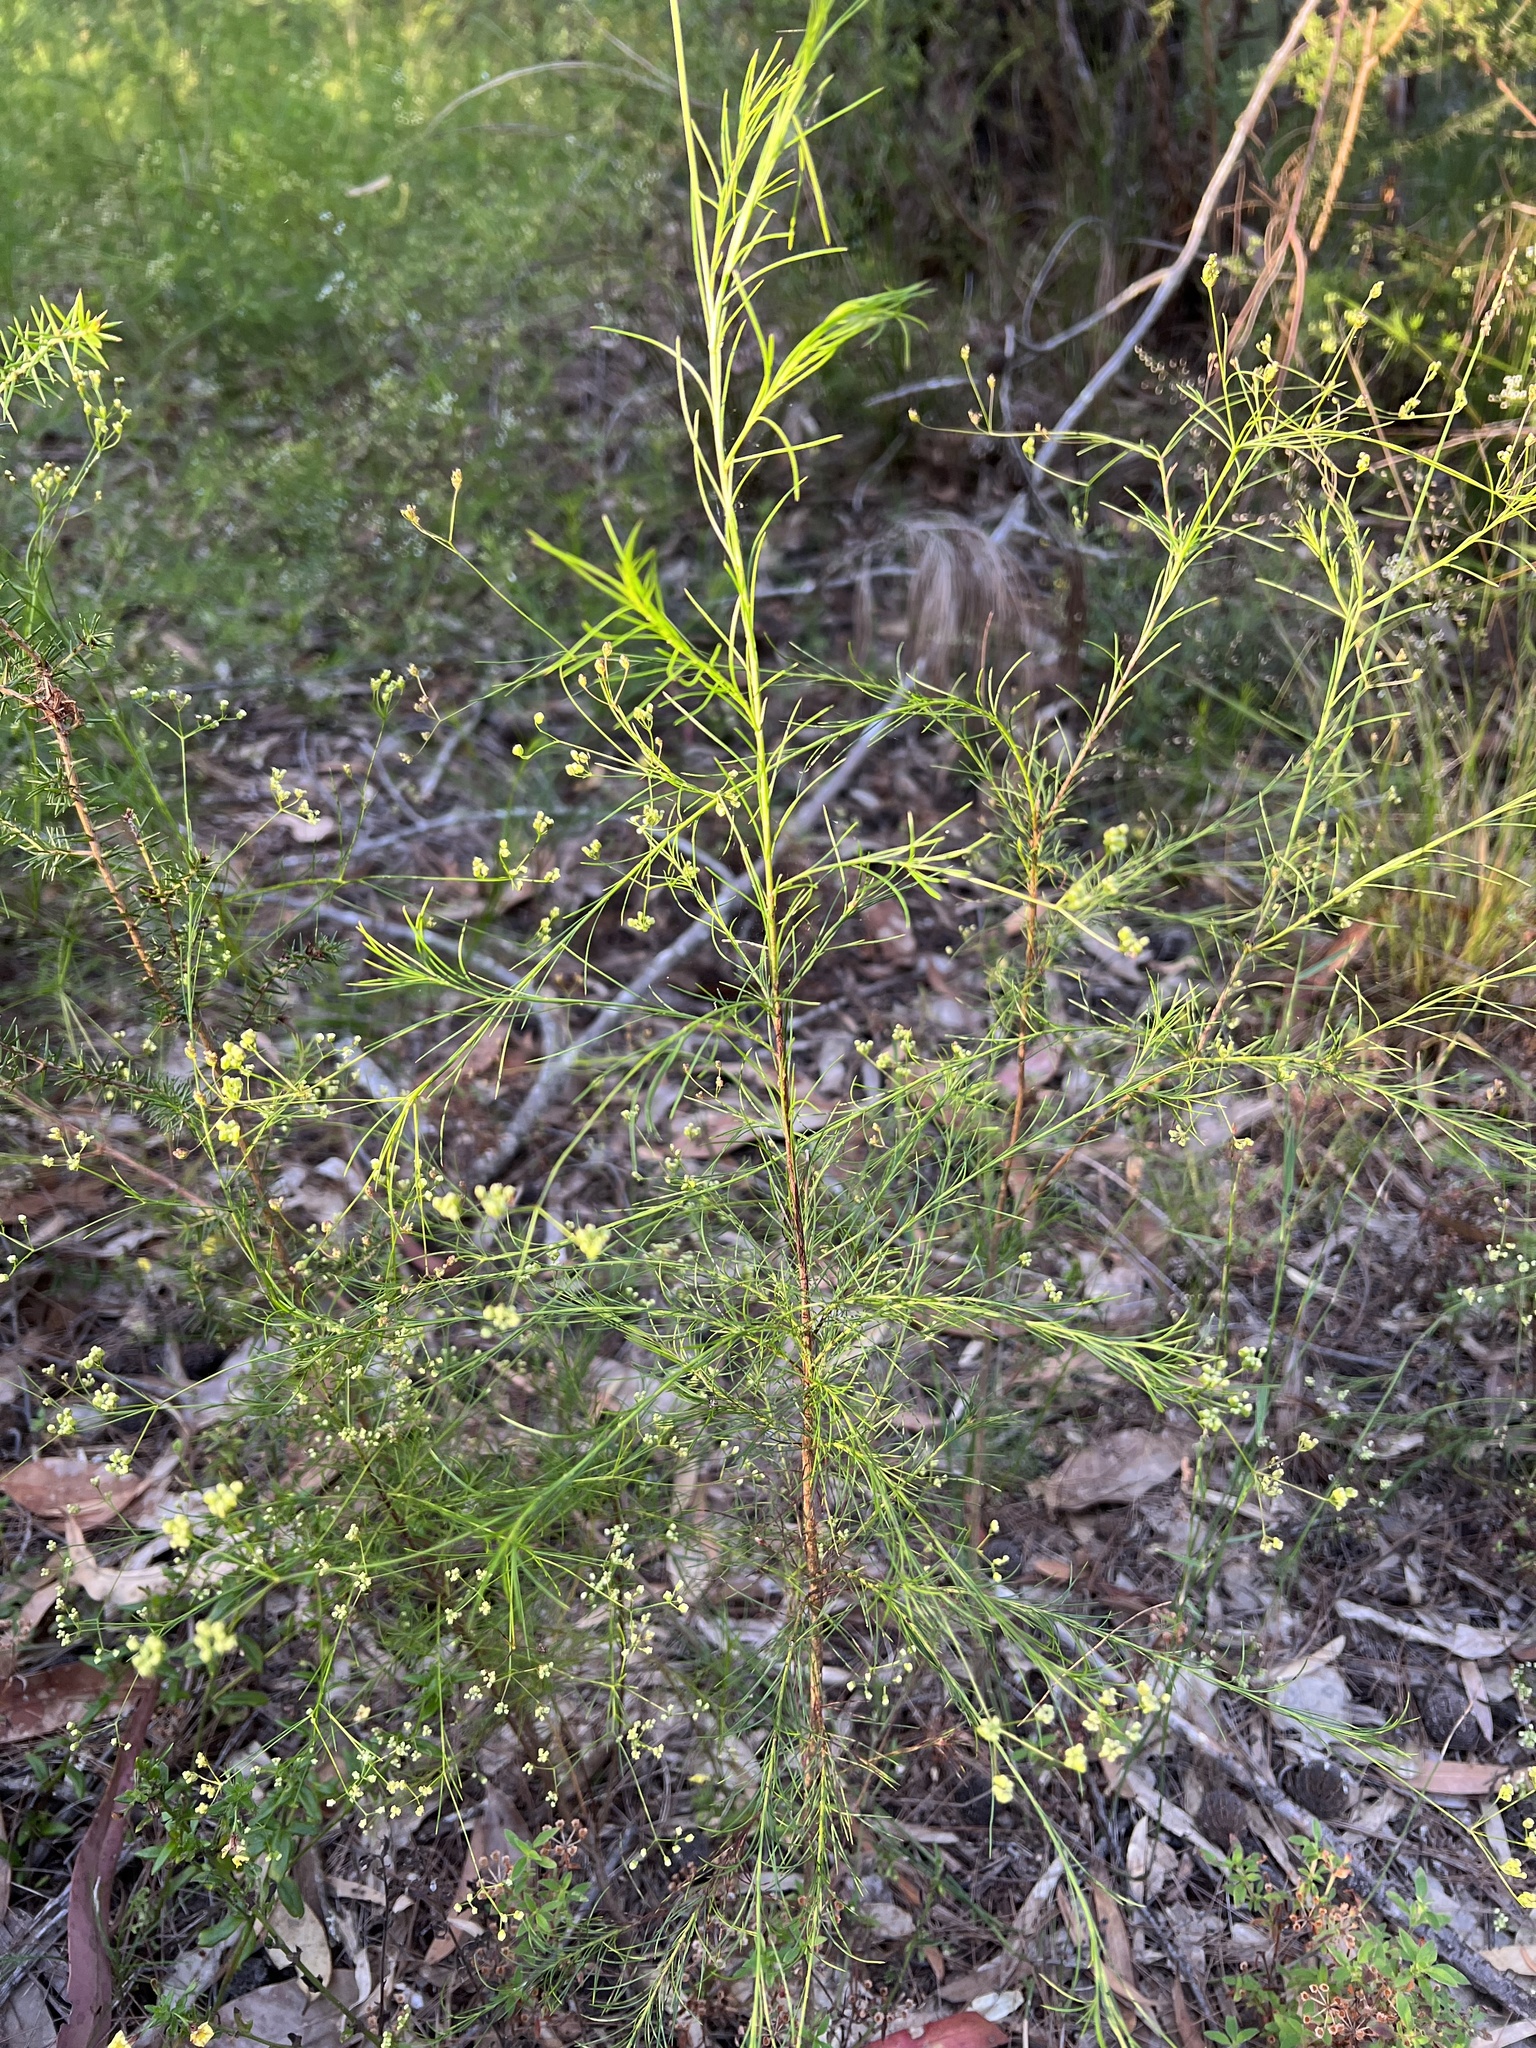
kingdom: Plantae
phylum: Tracheophyta
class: Magnoliopsida
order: Apiales
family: Apiaceae
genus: Platysace
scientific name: Platysace linearifolia
